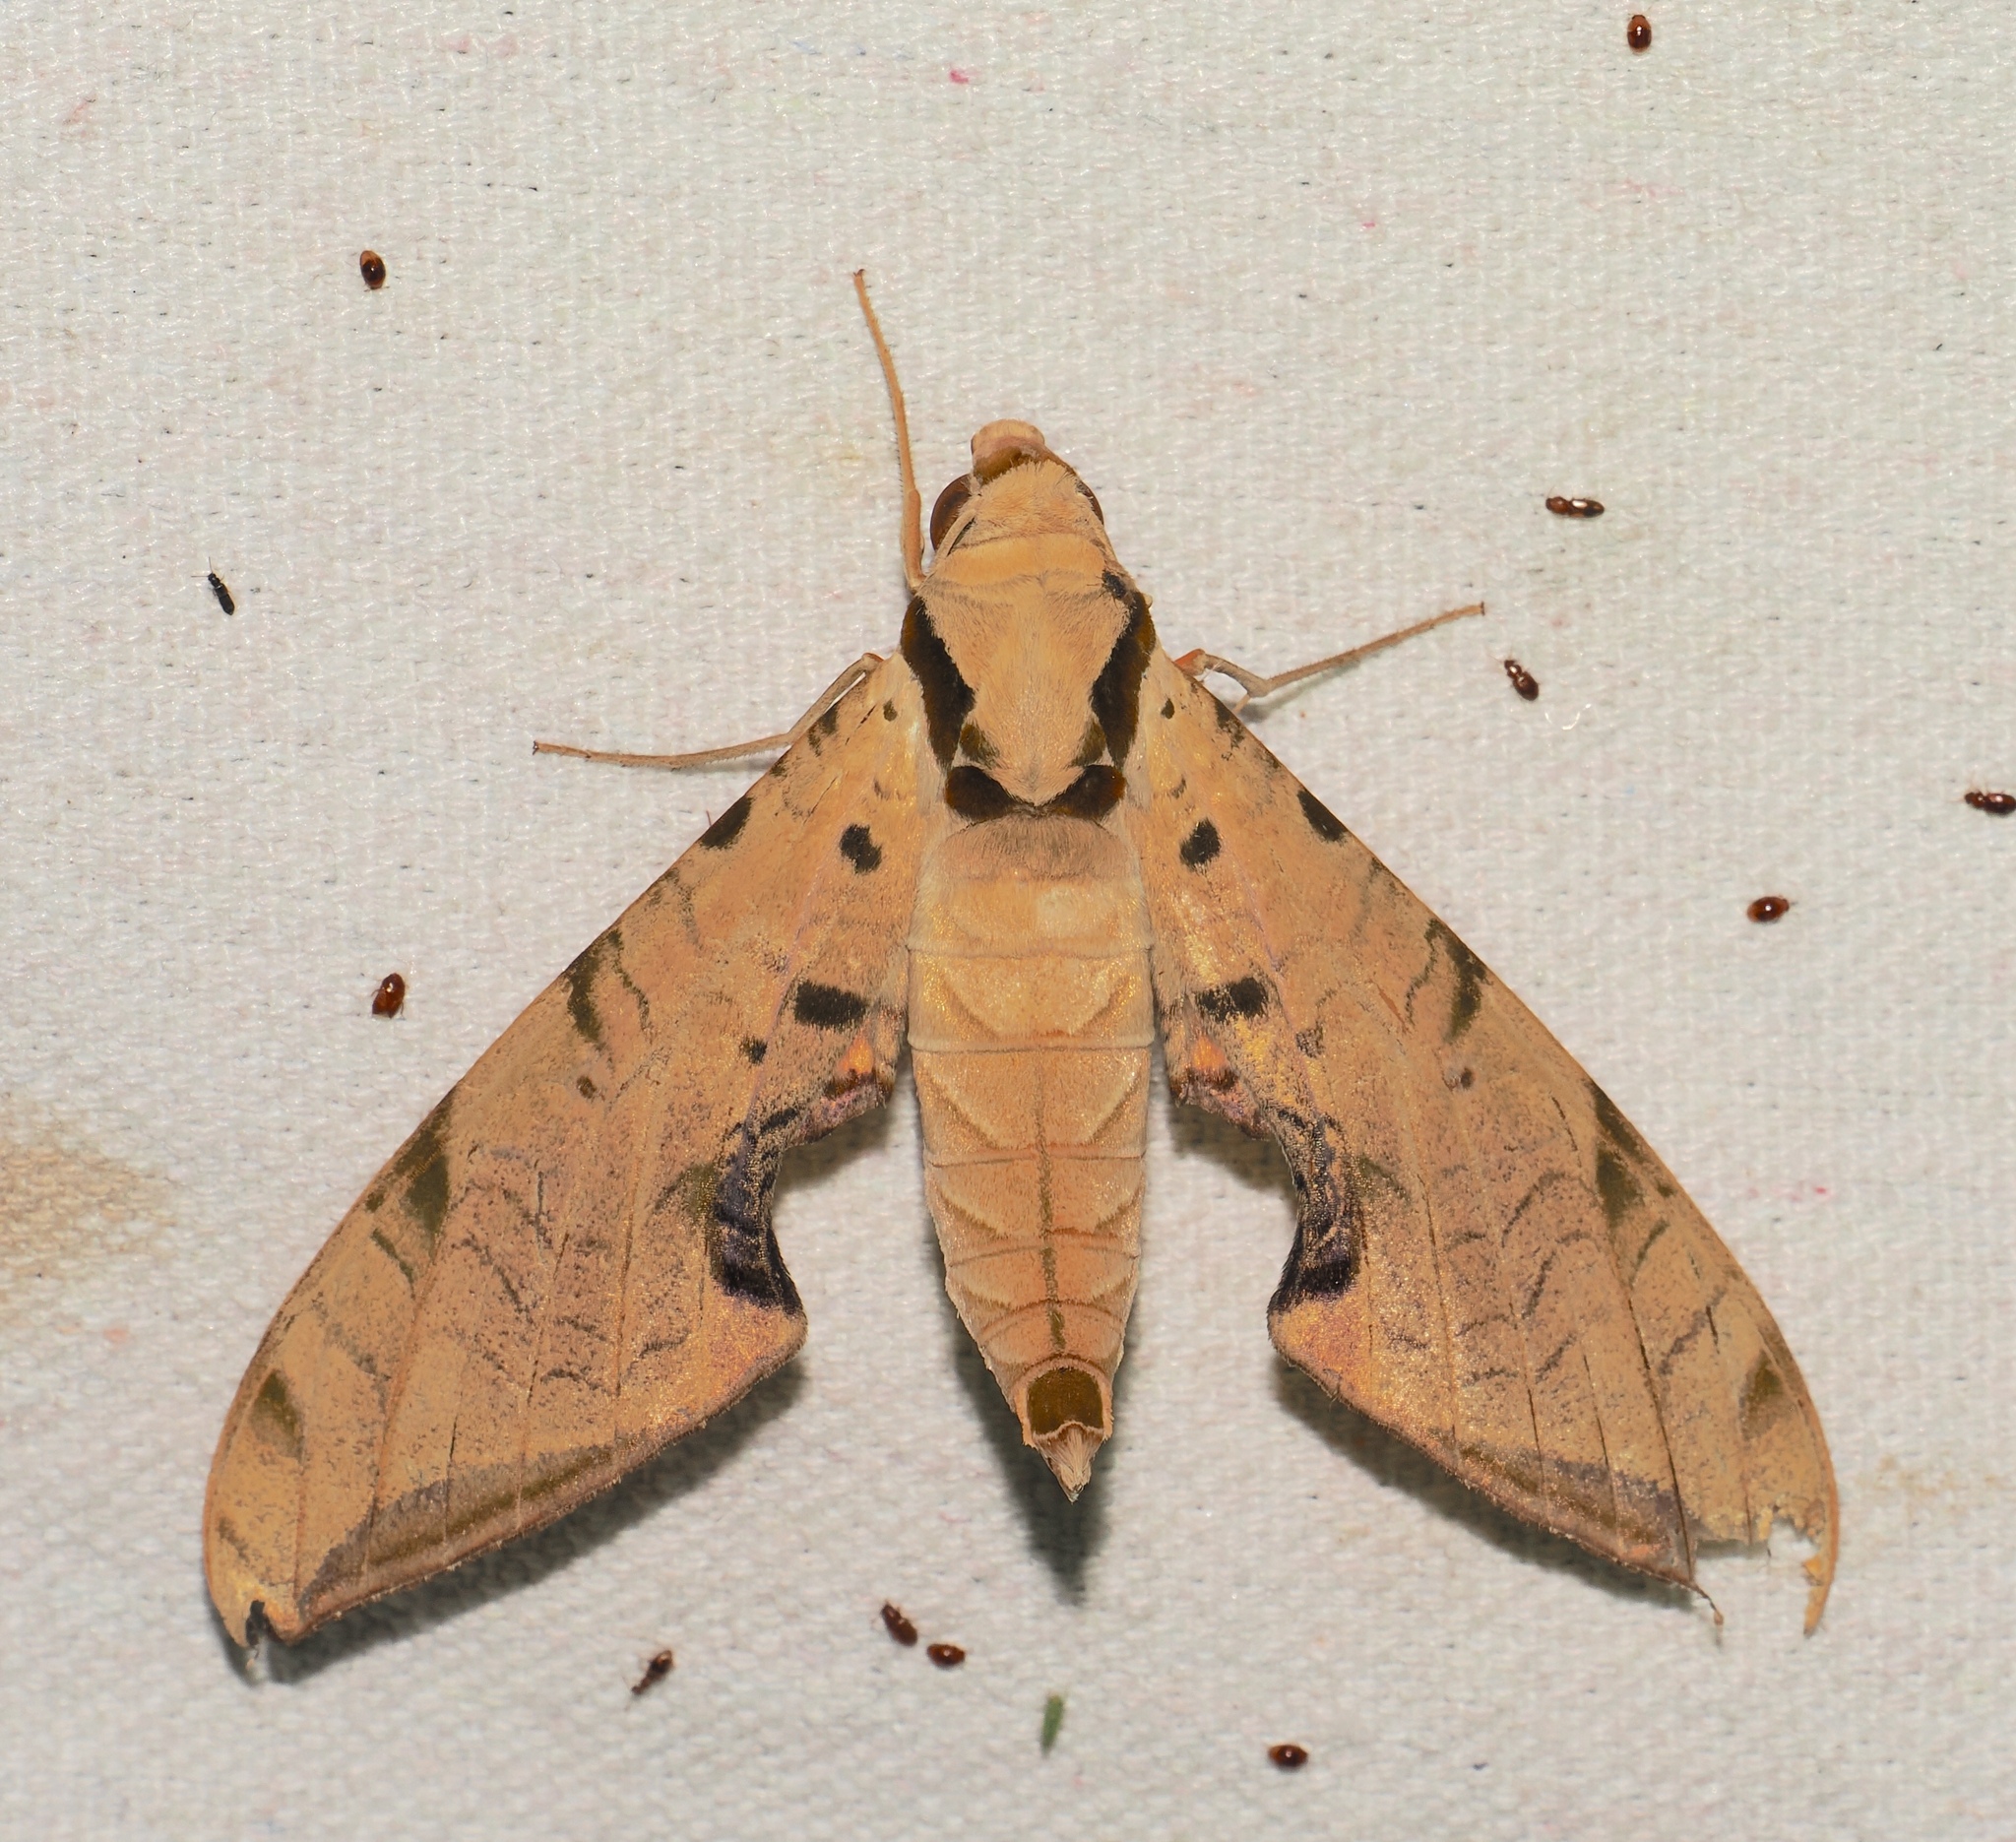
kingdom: Animalia
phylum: Arthropoda
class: Insecta
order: Lepidoptera
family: Sphingidae
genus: Protambulyx
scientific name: Protambulyx strigilis
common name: Streaked sphinx
